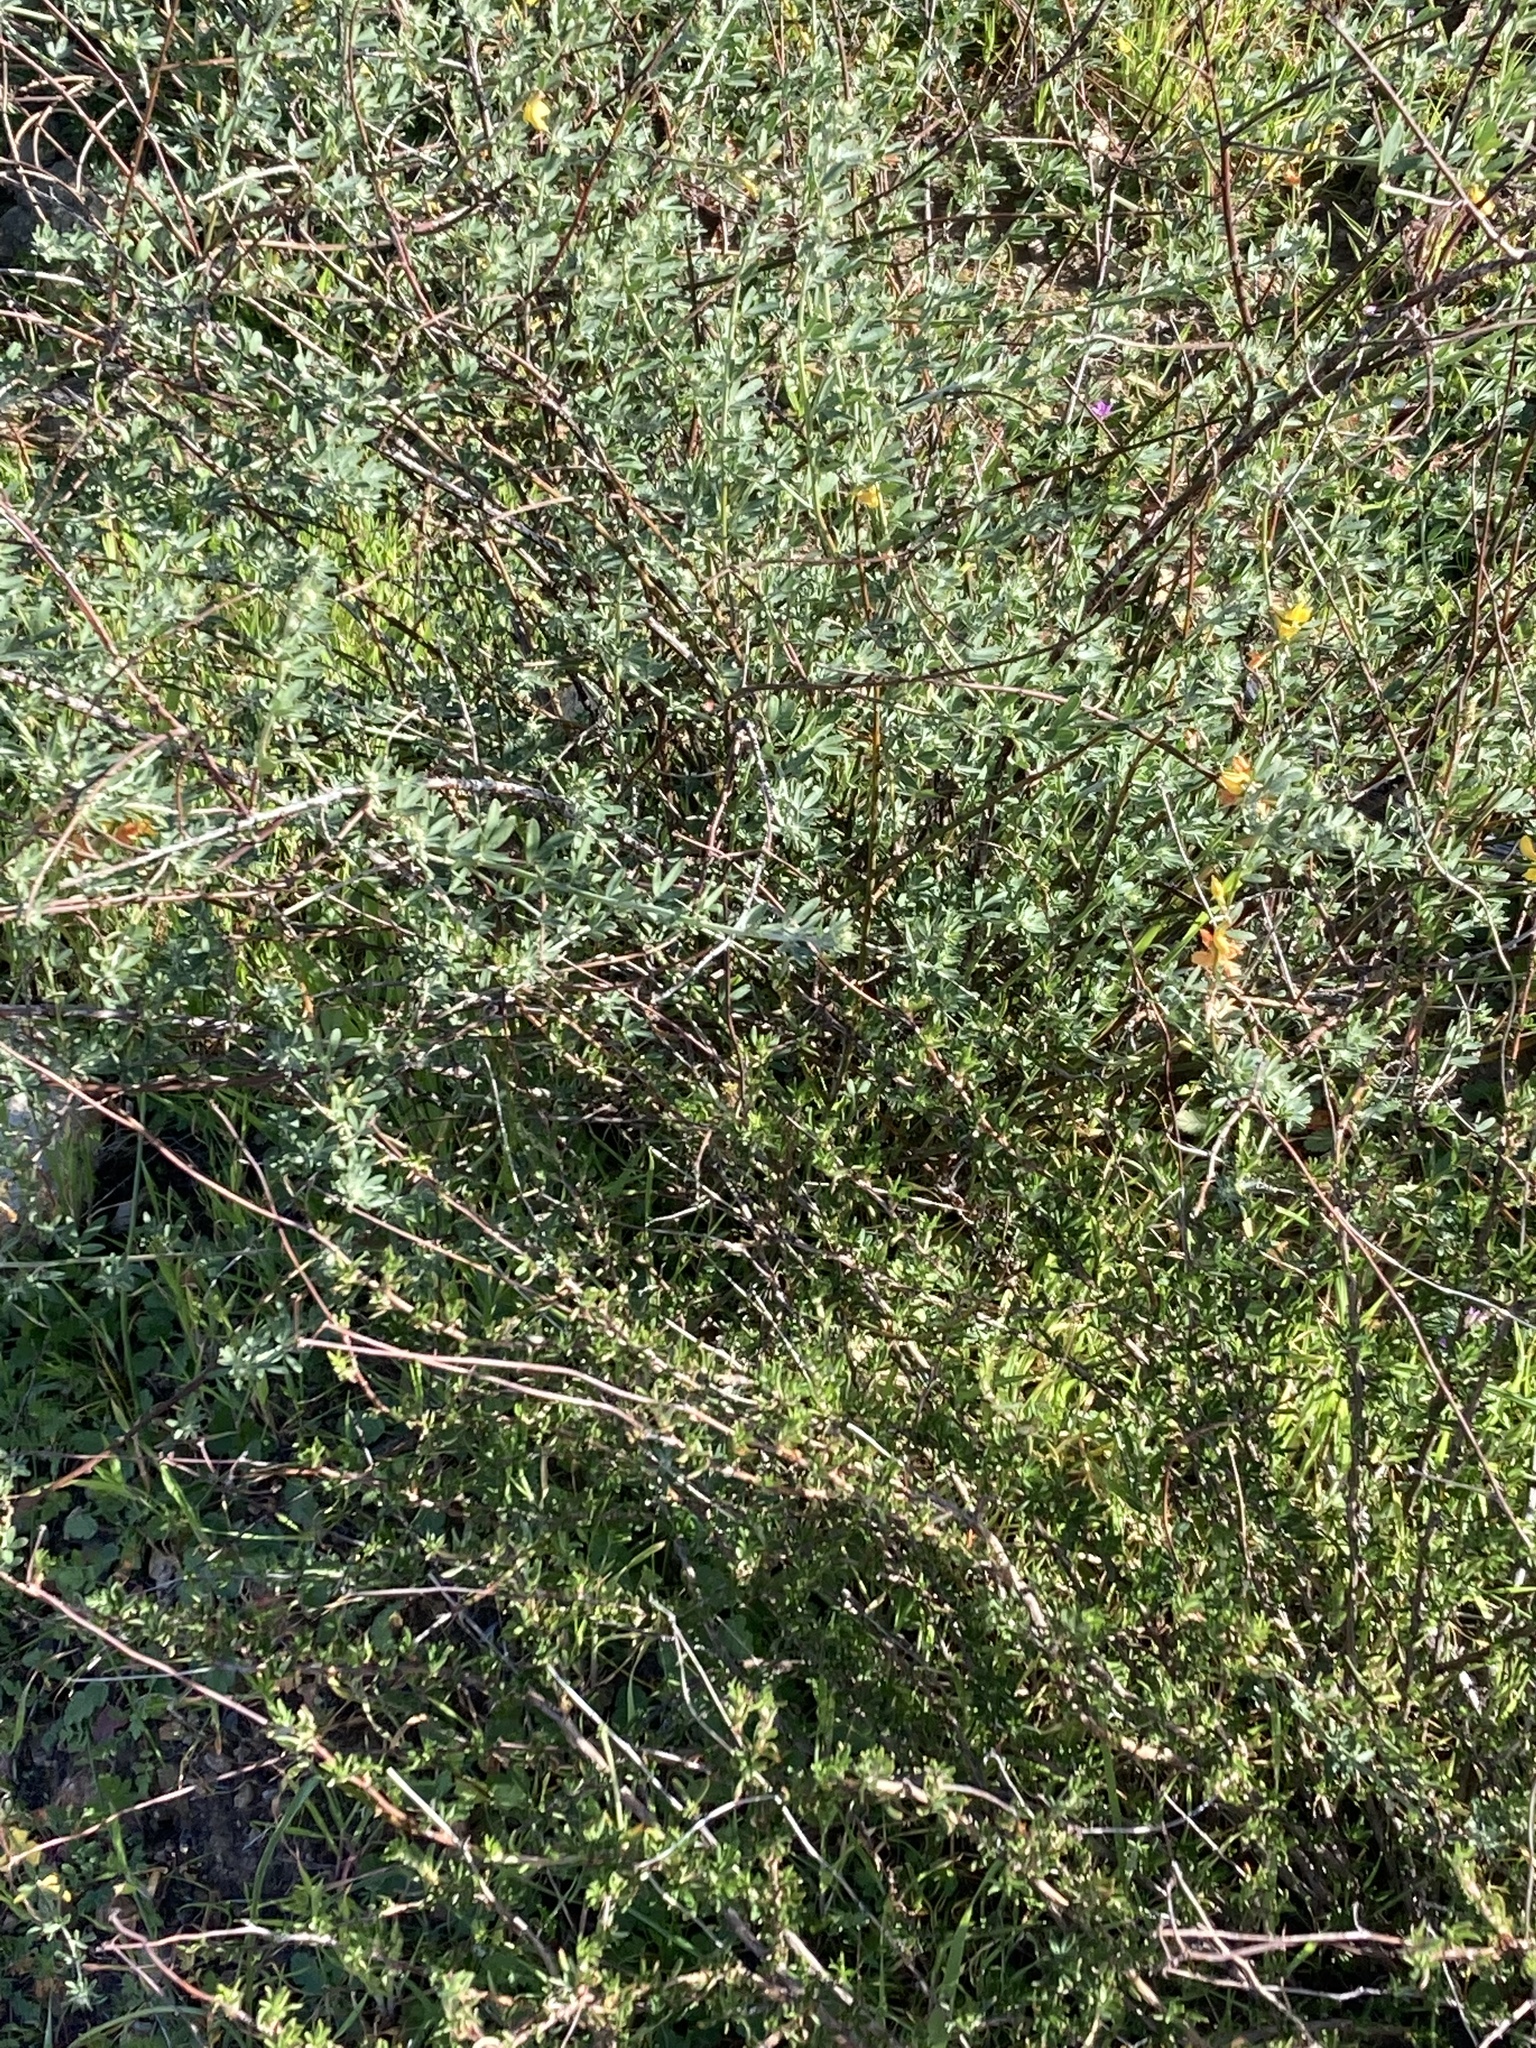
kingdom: Plantae
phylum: Tracheophyta
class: Magnoliopsida
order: Fabales
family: Fabaceae
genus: Acmispon
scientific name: Acmispon glaber
